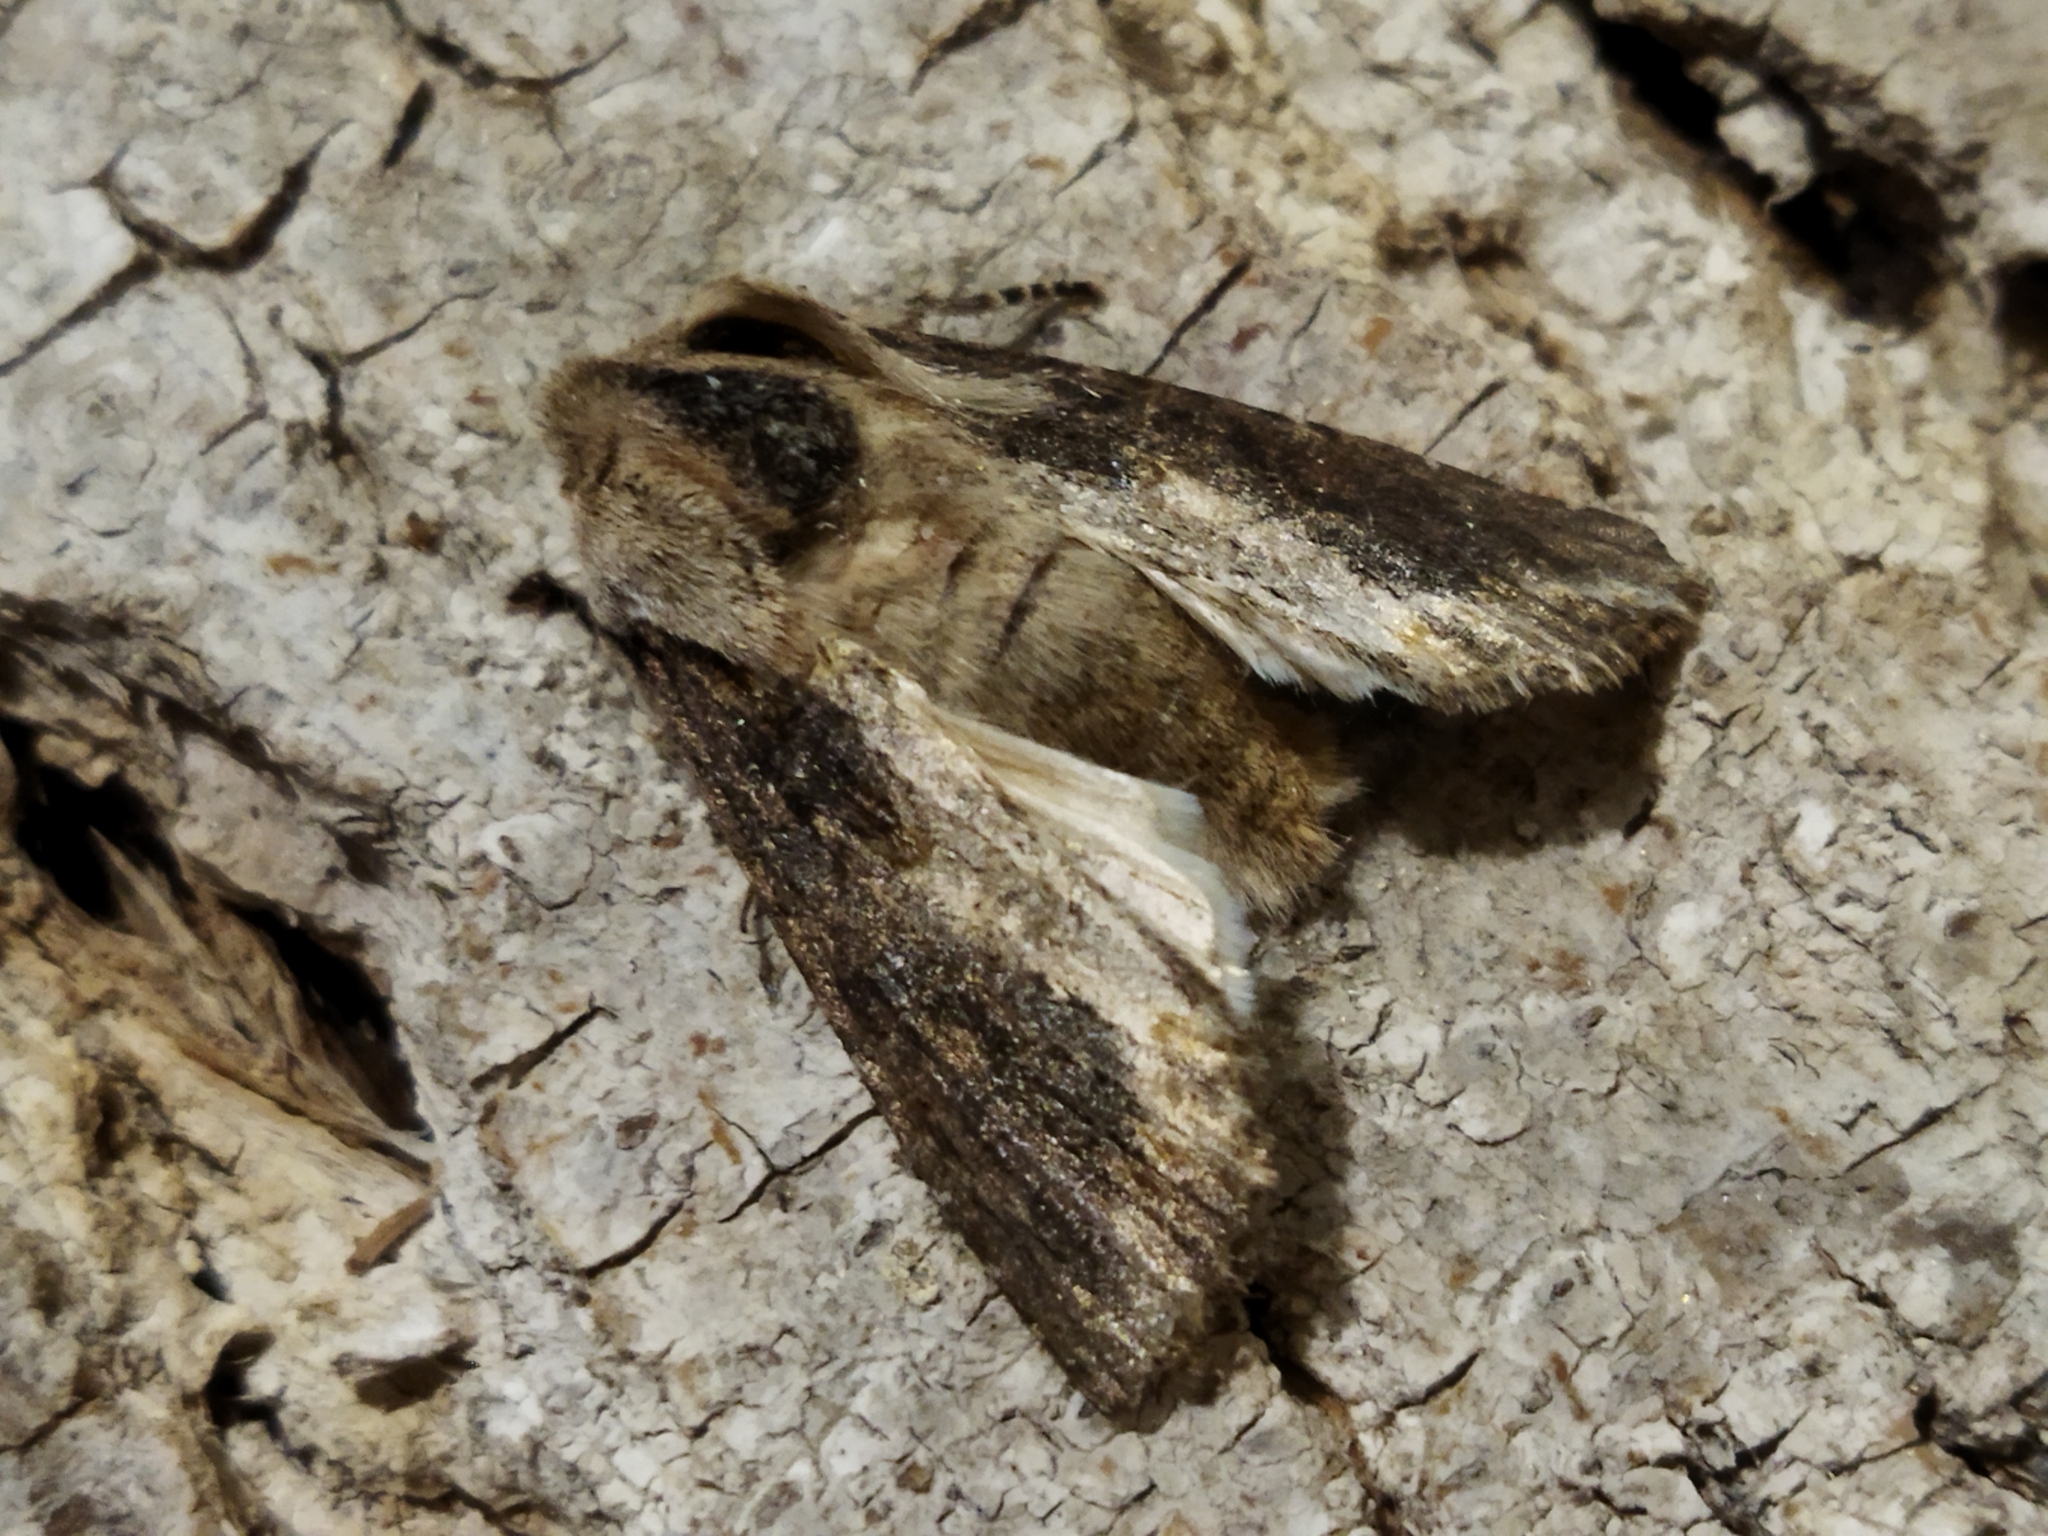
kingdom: Animalia
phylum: Arthropoda
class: Insecta
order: Lepidoptera
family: Noctuidae
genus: Egira
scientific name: Egira
